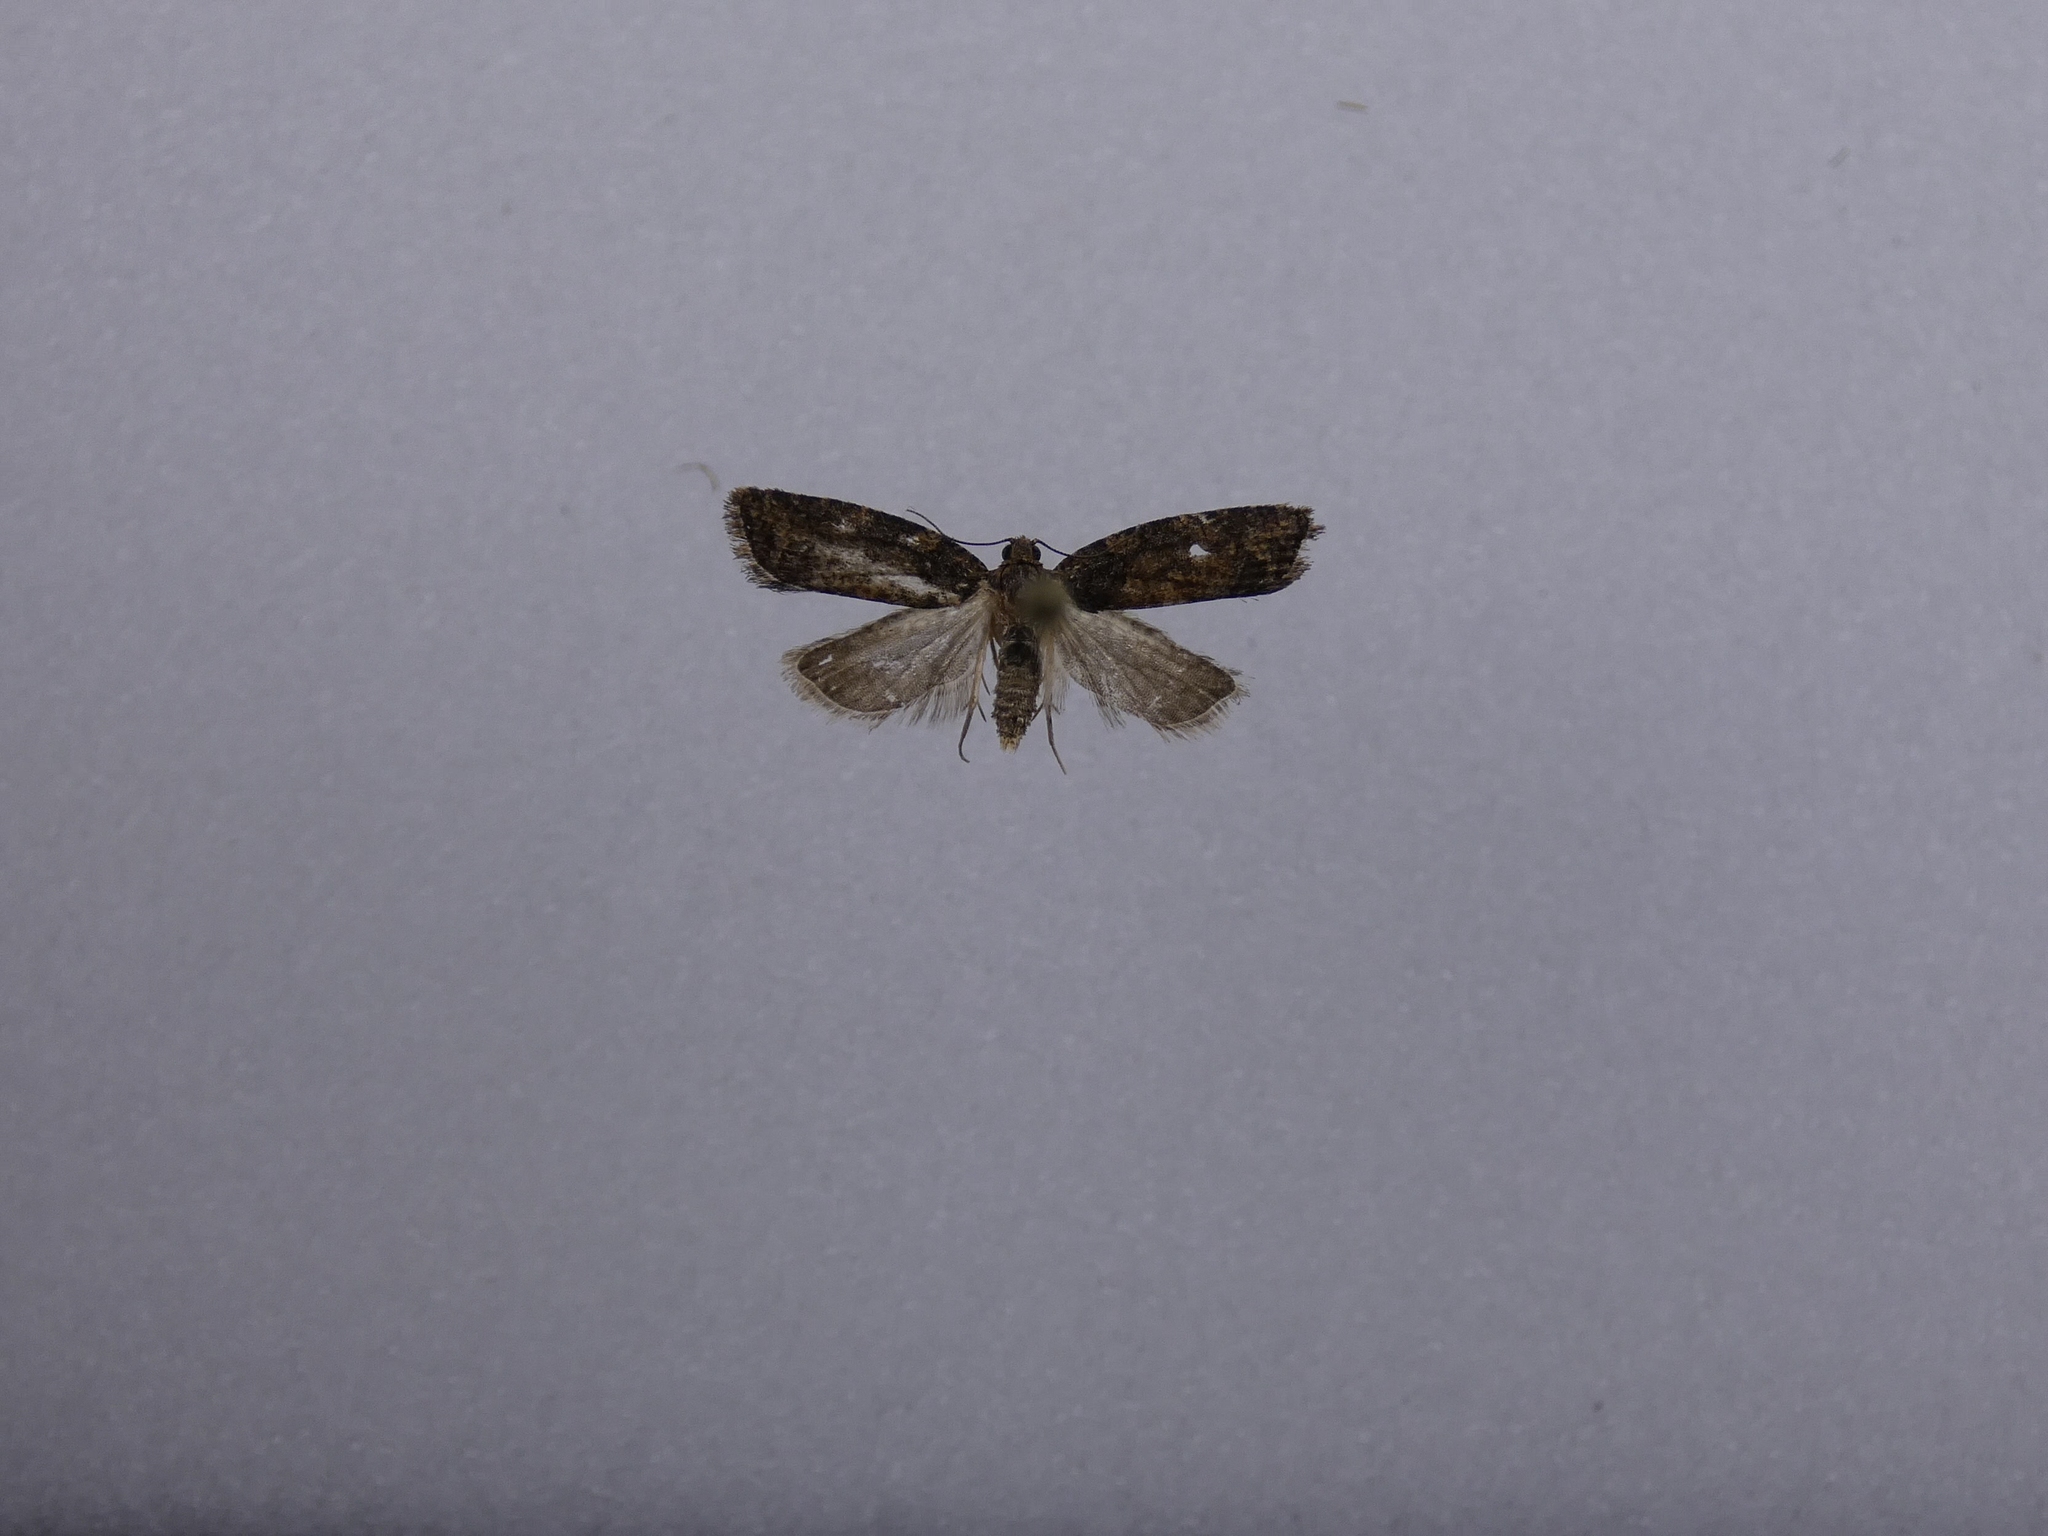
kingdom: Animalia
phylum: Arthropoda
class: Insecta
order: Lepidoptera
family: Tortricidae
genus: Capua
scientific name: Capua intractana
